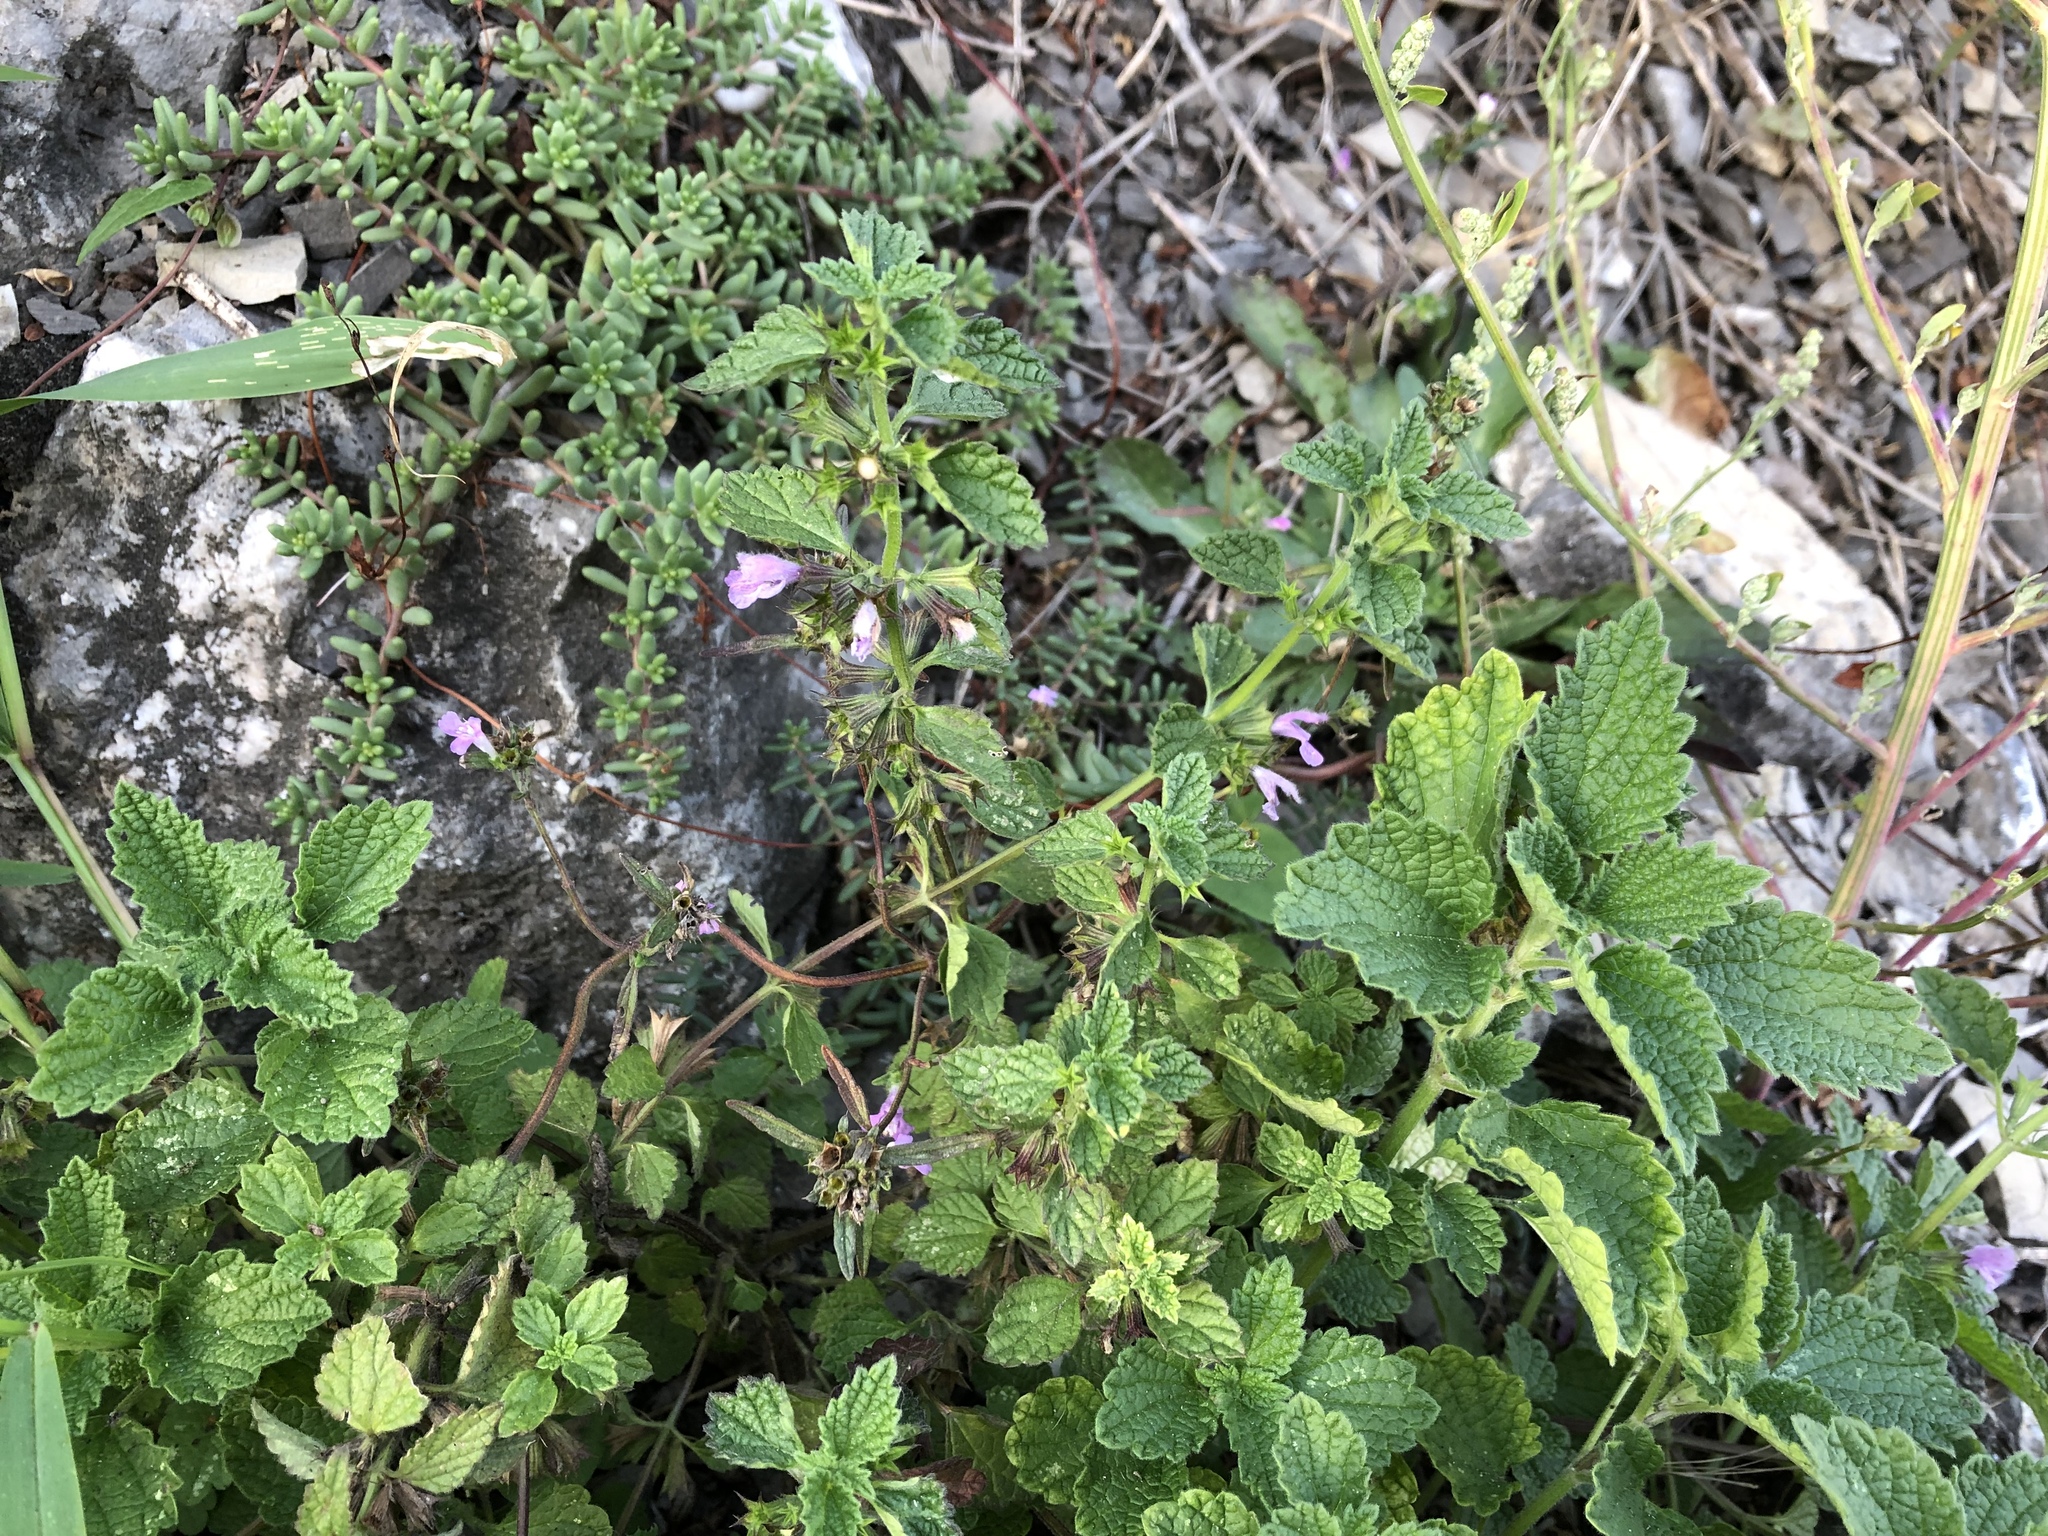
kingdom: Plantae
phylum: Tracheophyta
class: Magnoliopsida
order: Lamiales
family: Lamiaceae
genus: Ballota
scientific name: Ballota nigra
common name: Black horehound
